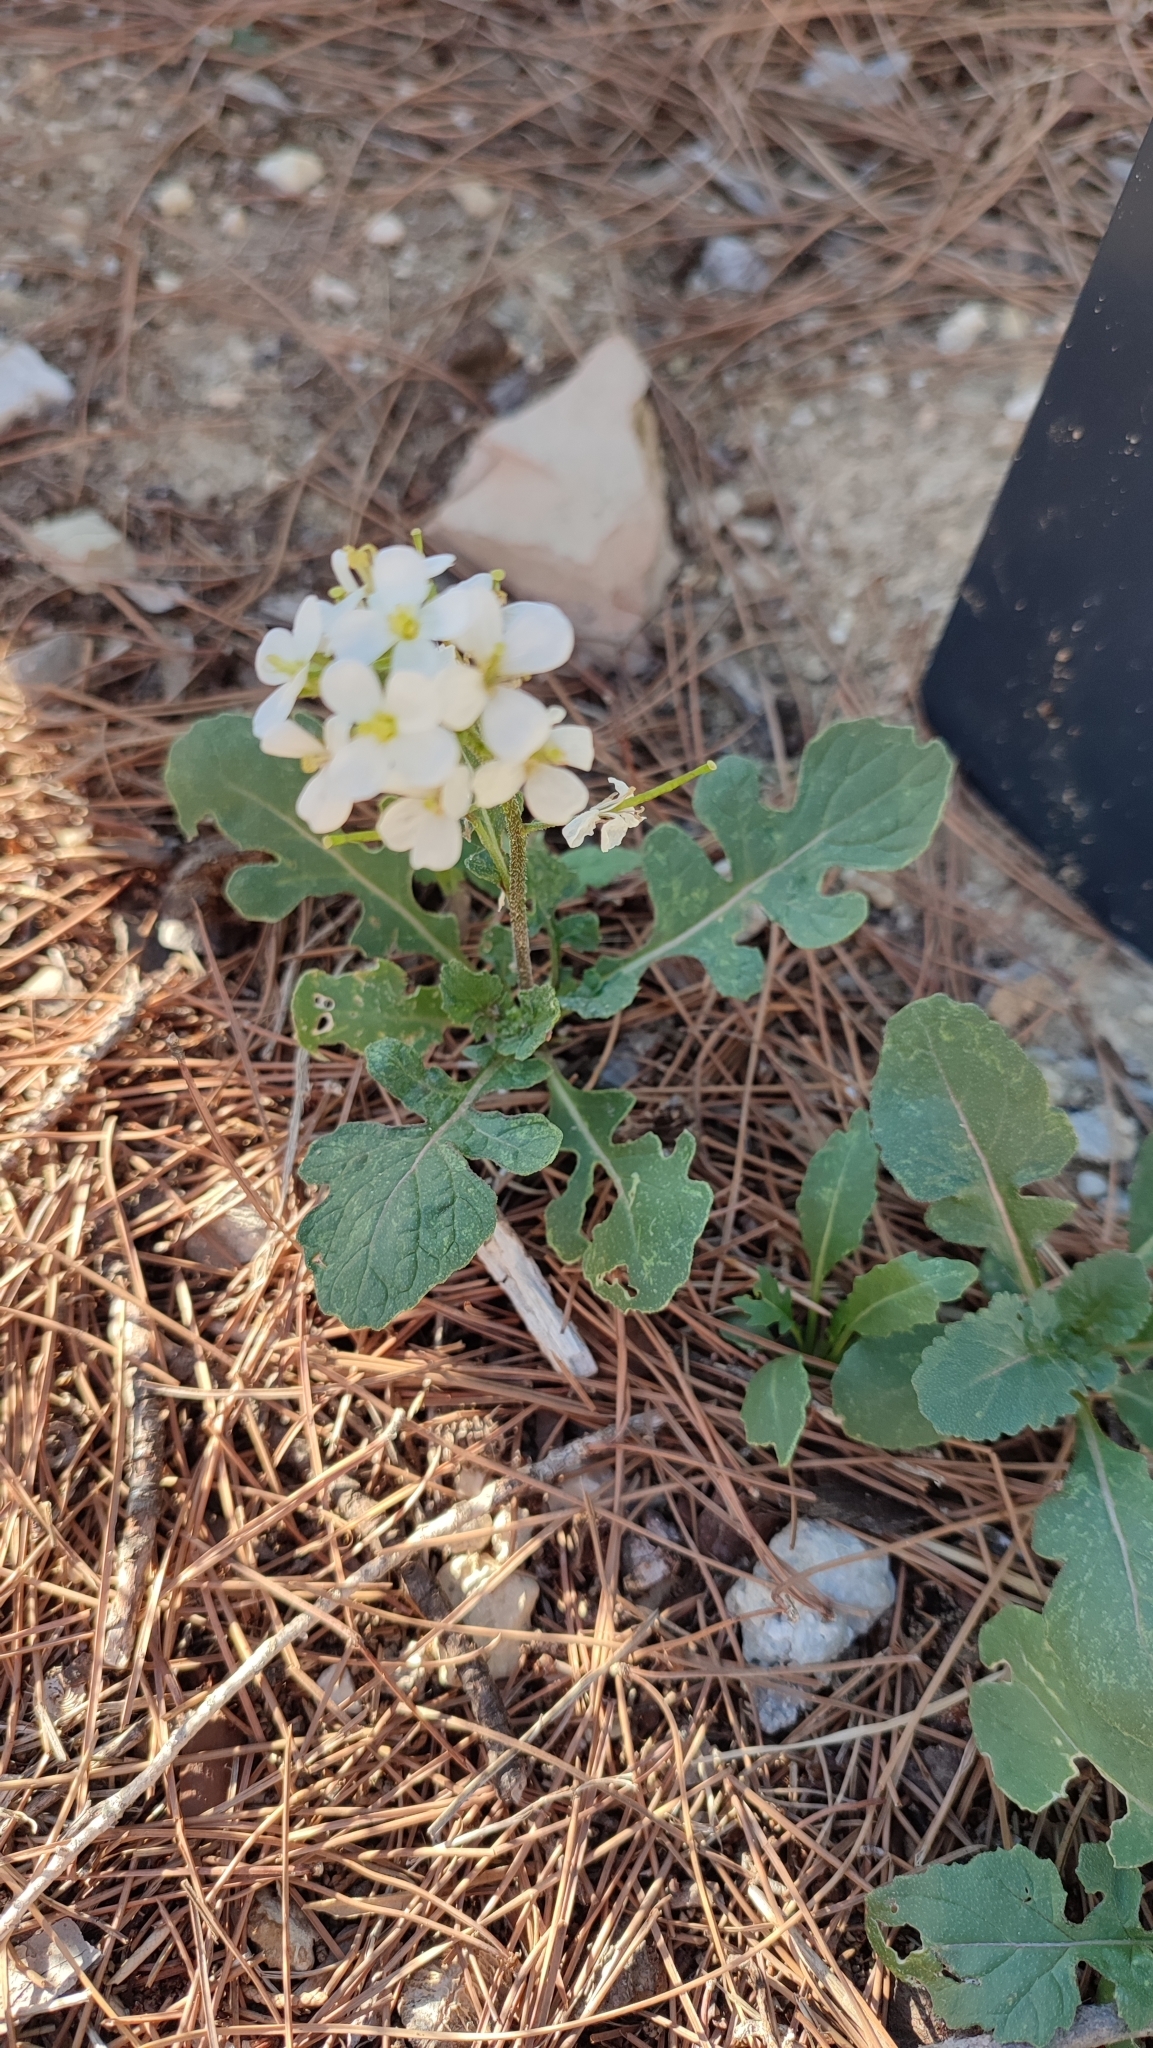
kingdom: Plantae
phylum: Tracheophyta
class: Magnoliopsida
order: Brassicales
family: Brassicaceae
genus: Diplotaxis
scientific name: Diplotaxis erucoides
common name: White rocket
